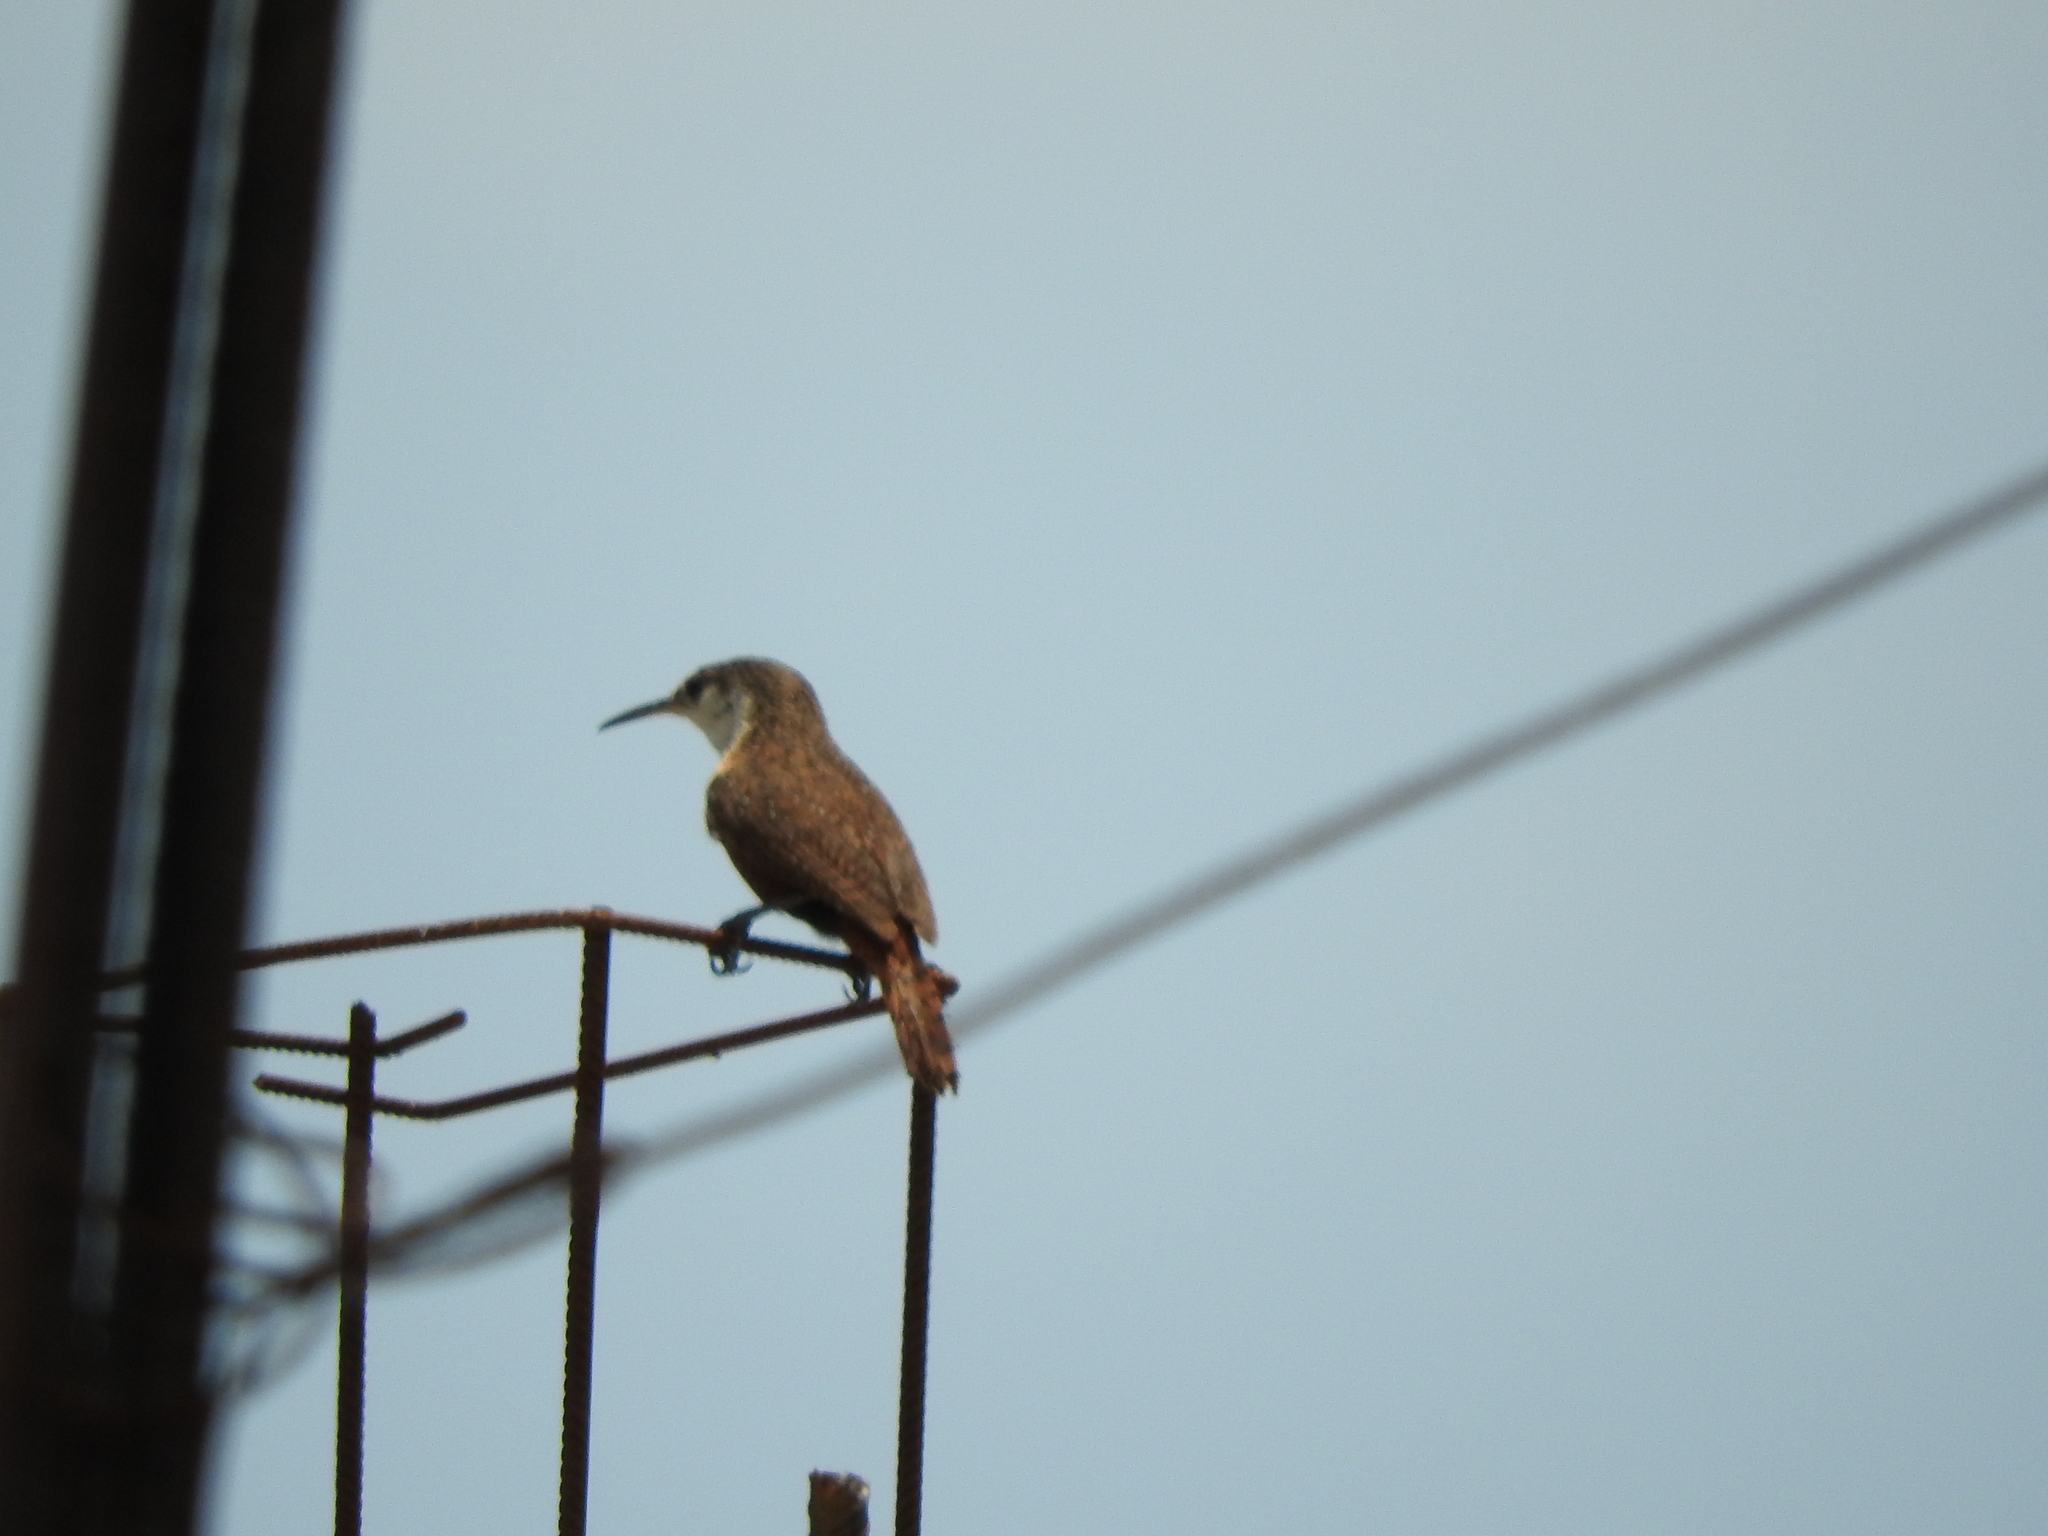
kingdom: Animalia
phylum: Chordata
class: Aves
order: Passeriformes
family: Troglodytidae
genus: Catherpes
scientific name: Catherpes mexicanus
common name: Canyon wren
